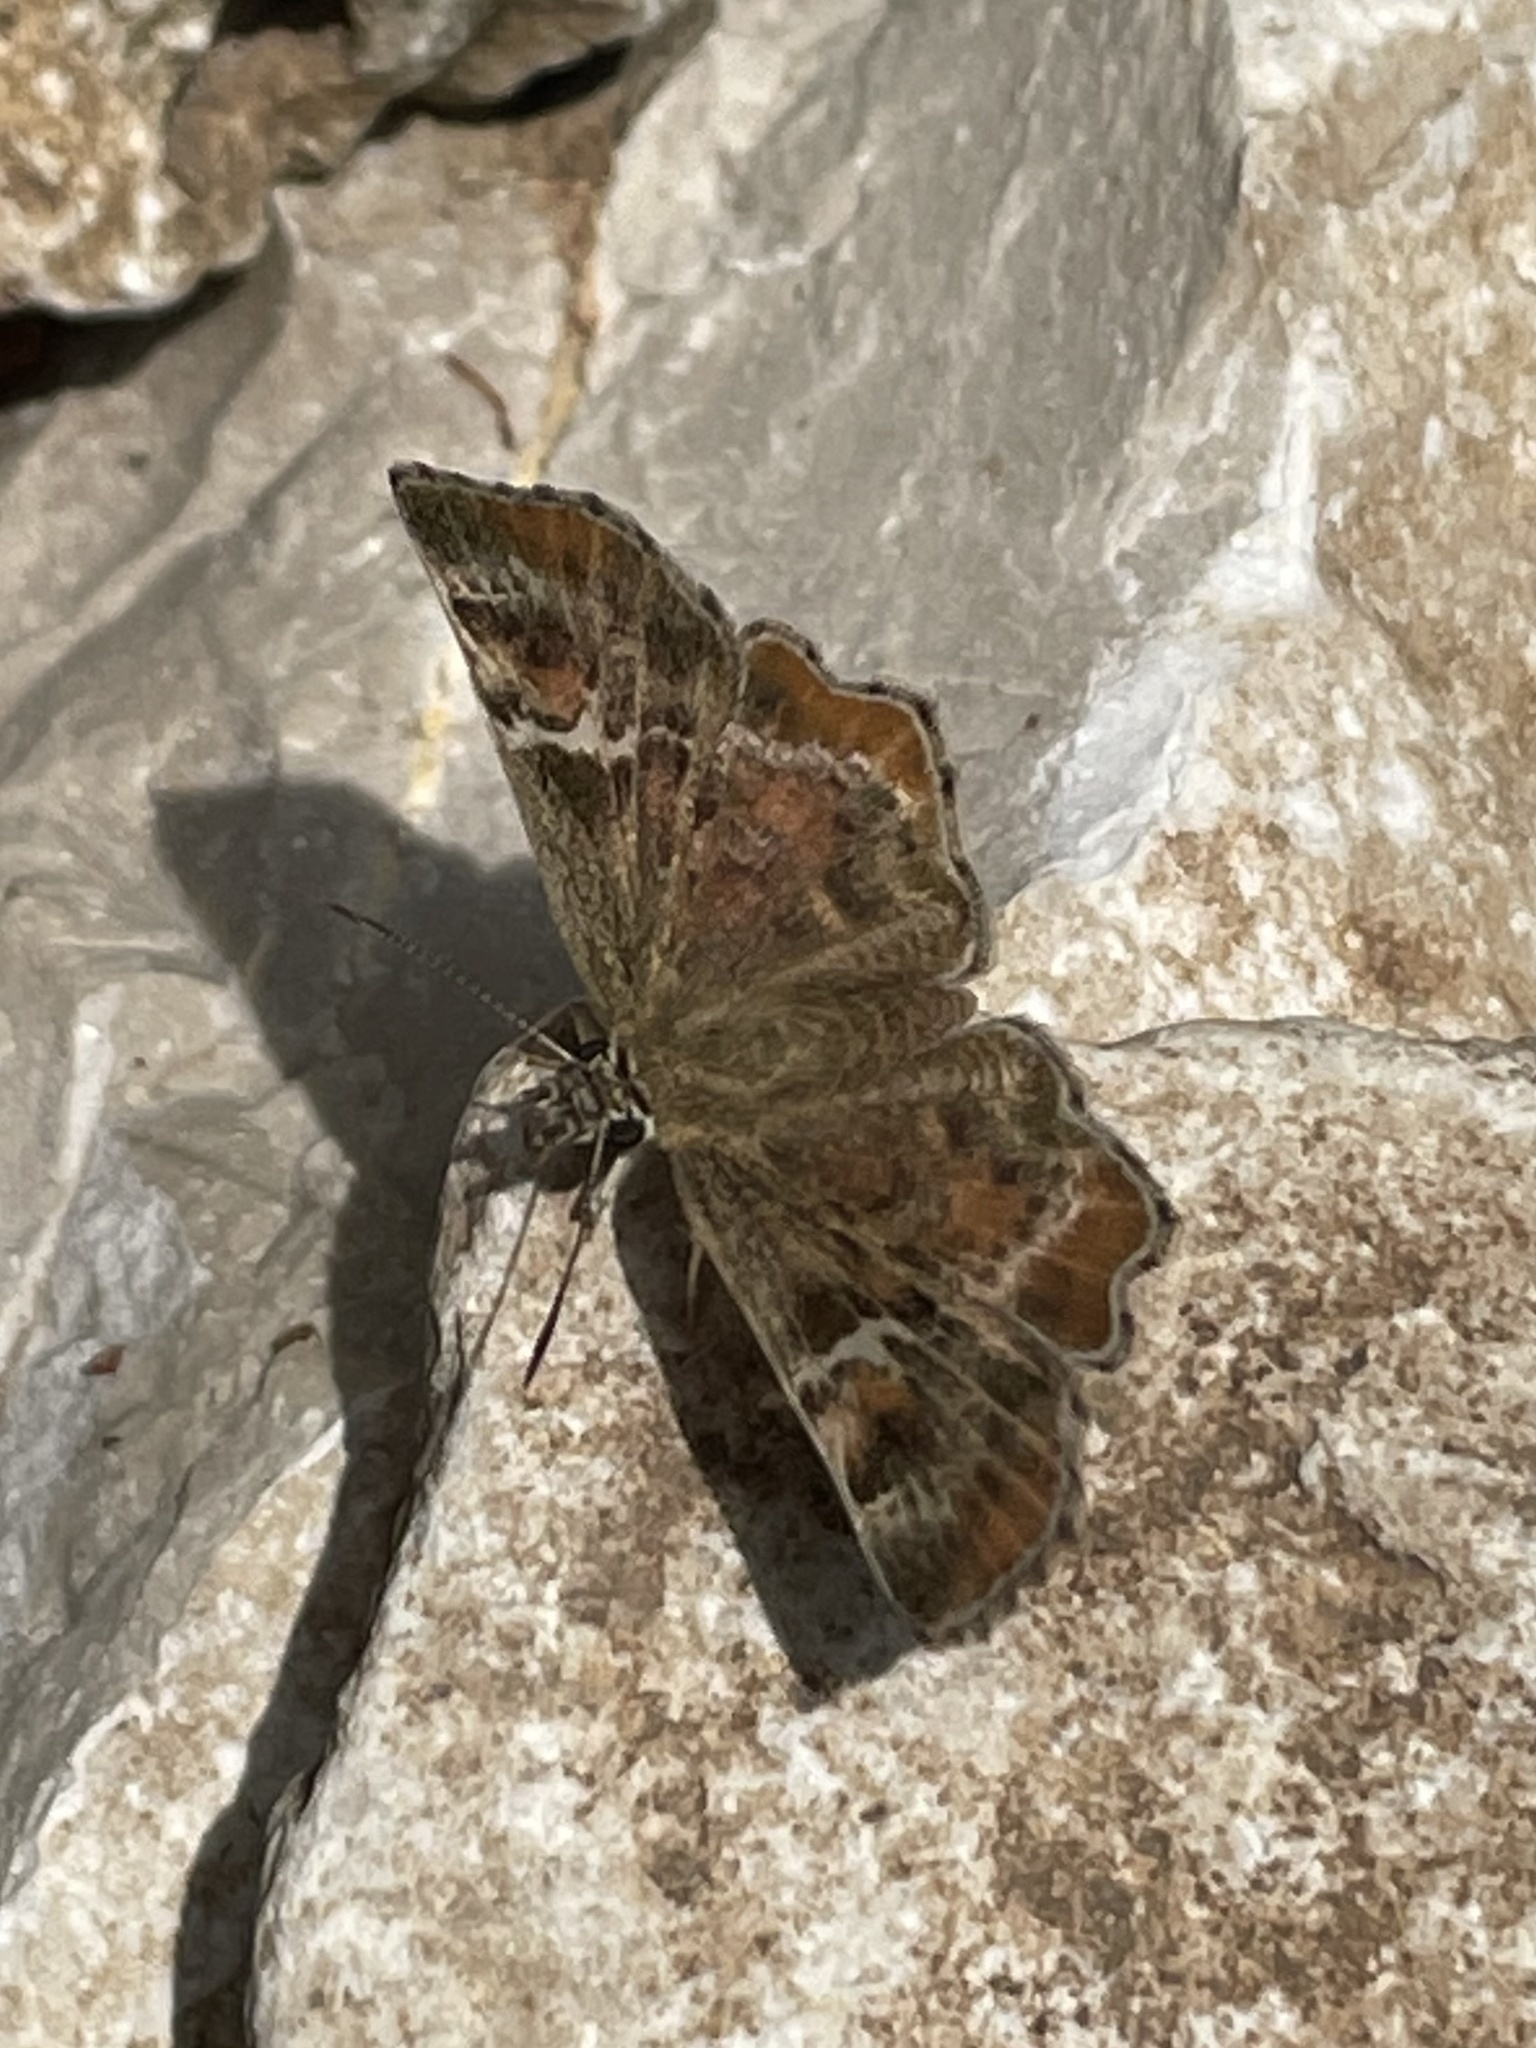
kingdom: Animalia
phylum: Arthropoda
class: Insecta
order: Lepidoptera
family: Hesperiidae
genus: Systasea
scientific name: Systasea pulverulenta
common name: Texas powdered skipper
